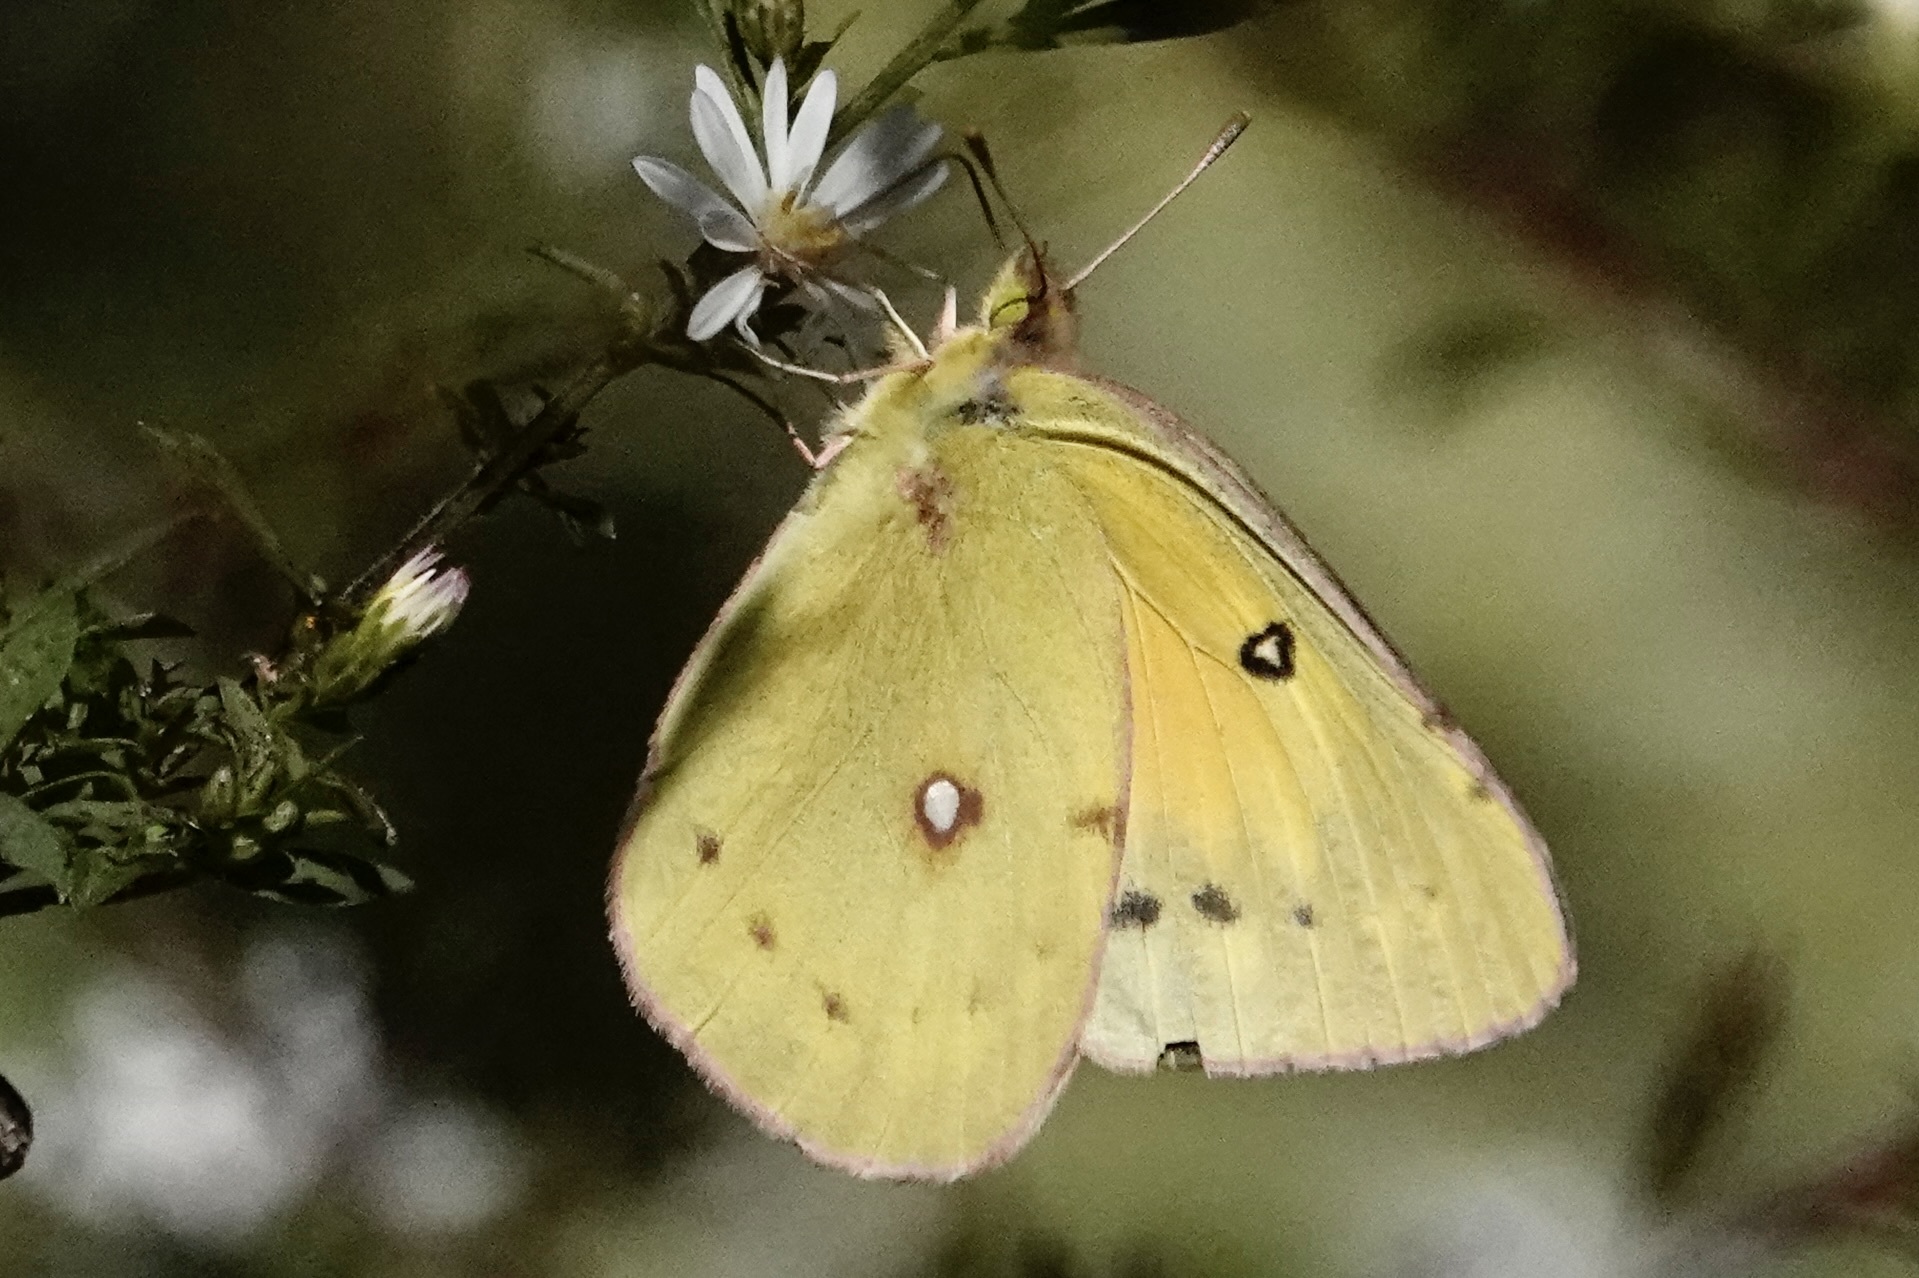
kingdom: Animalia
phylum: Arthropoda
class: Insecta
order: Lepidoptera
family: Pieridae
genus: Colias
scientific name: Colias eurytheme
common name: Alfalfa butterfly
